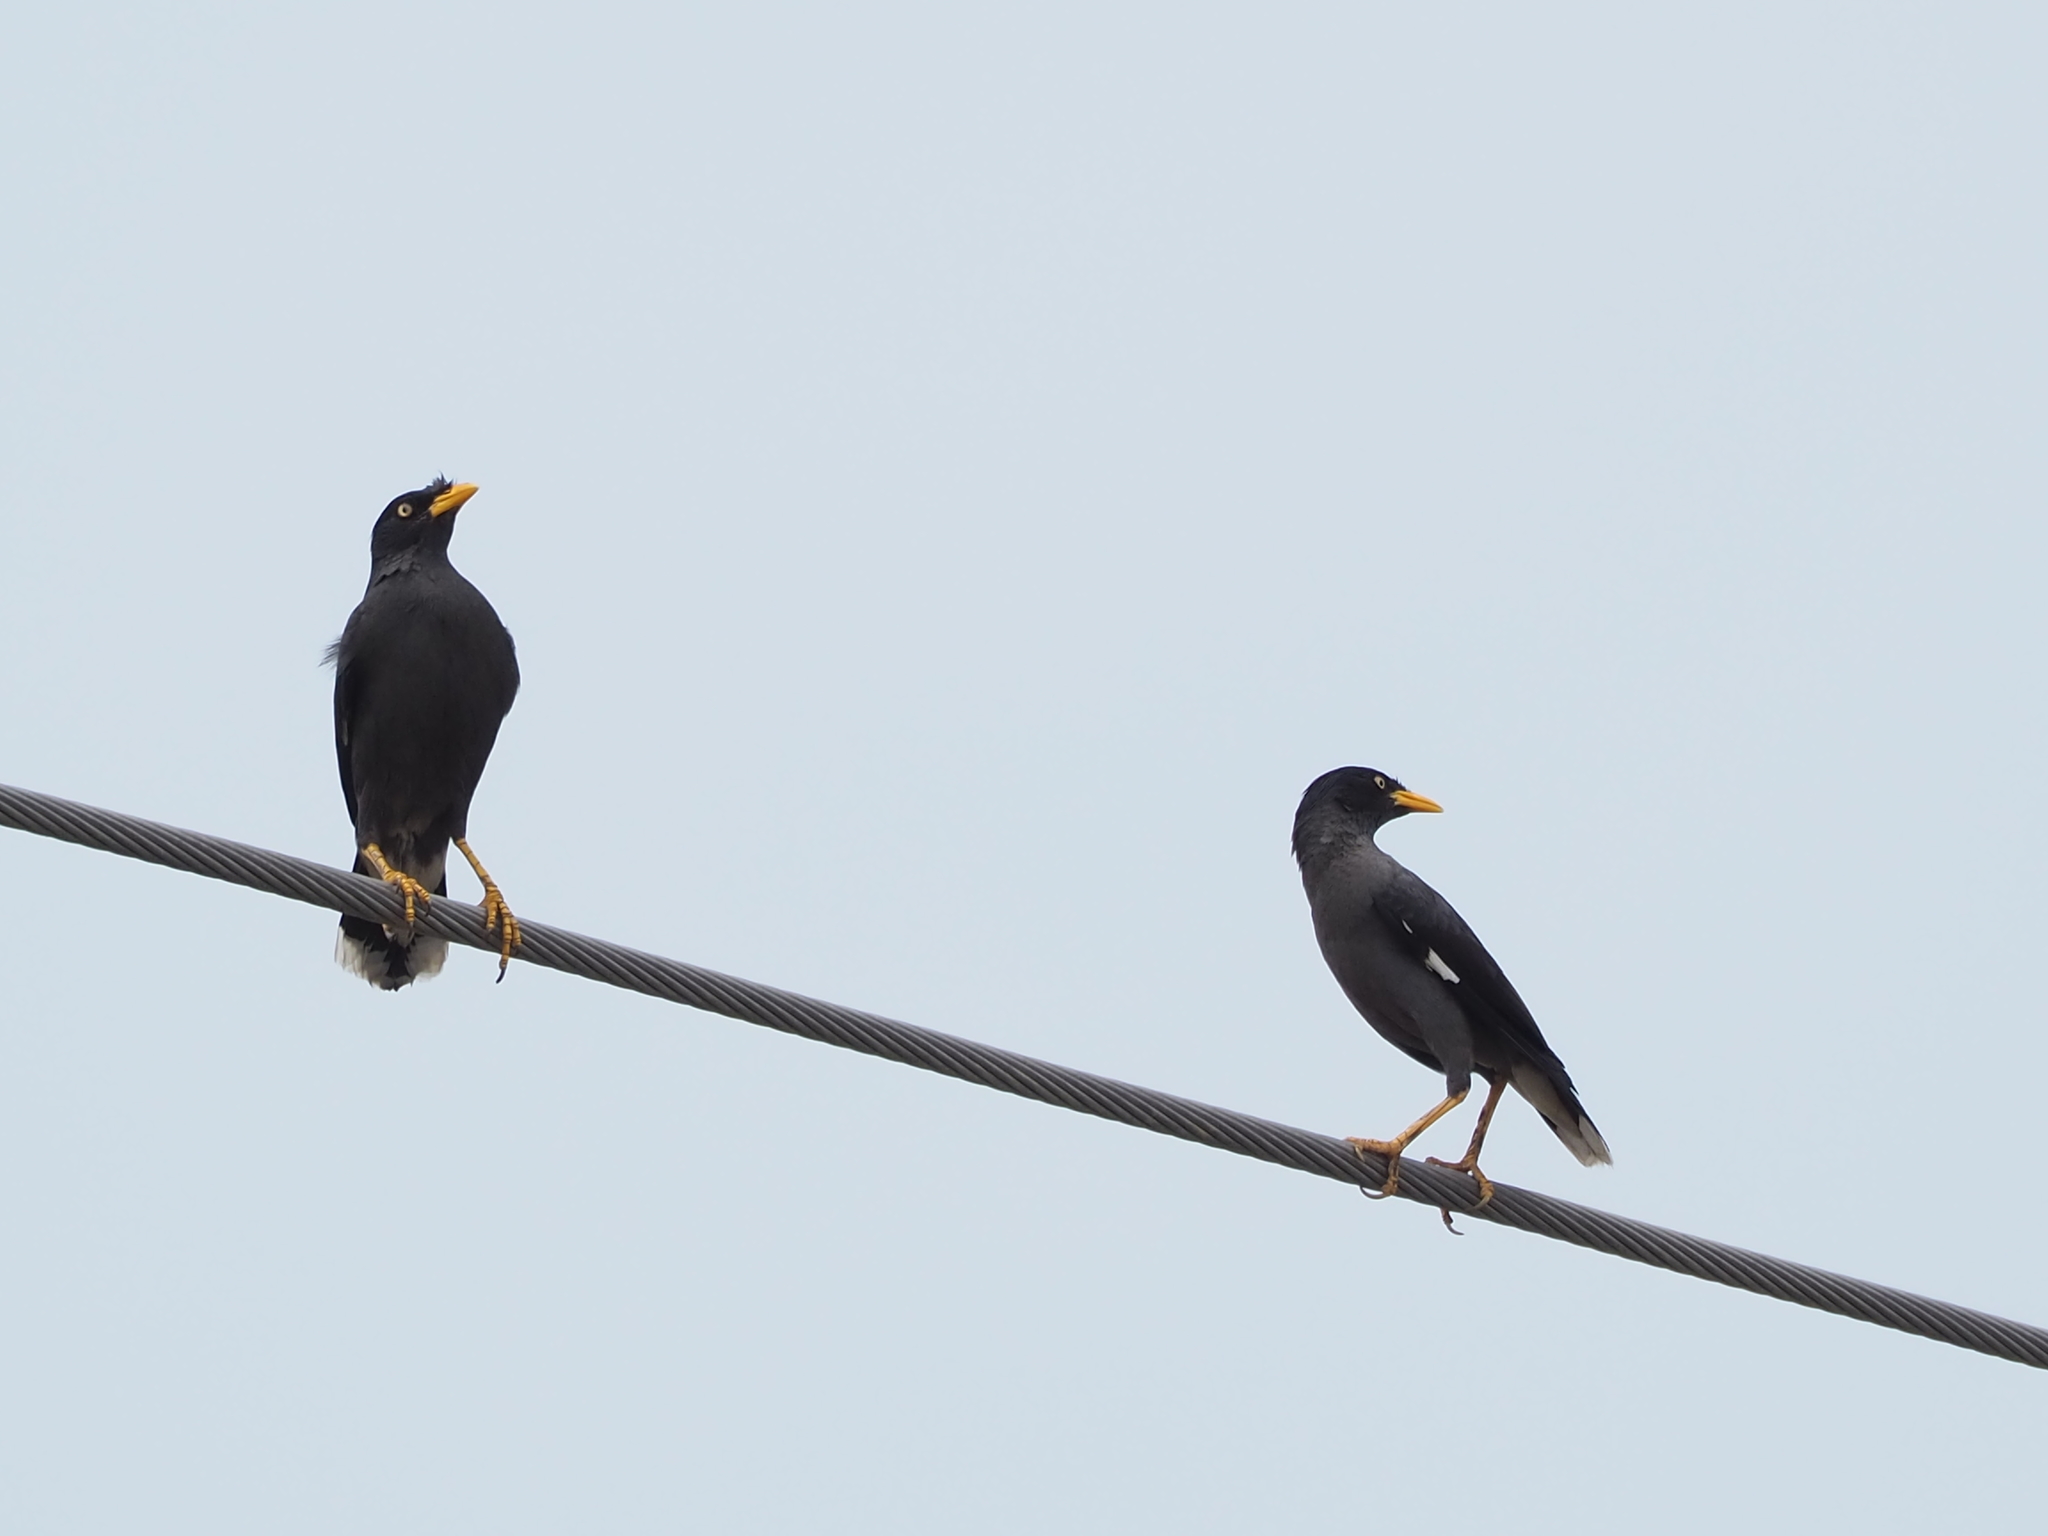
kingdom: Animalia
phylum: Chordata
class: Aves
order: Passeriformes
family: Sturnidae
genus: Acridotheres
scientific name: Acridotheres javanicus
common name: Javan myna
